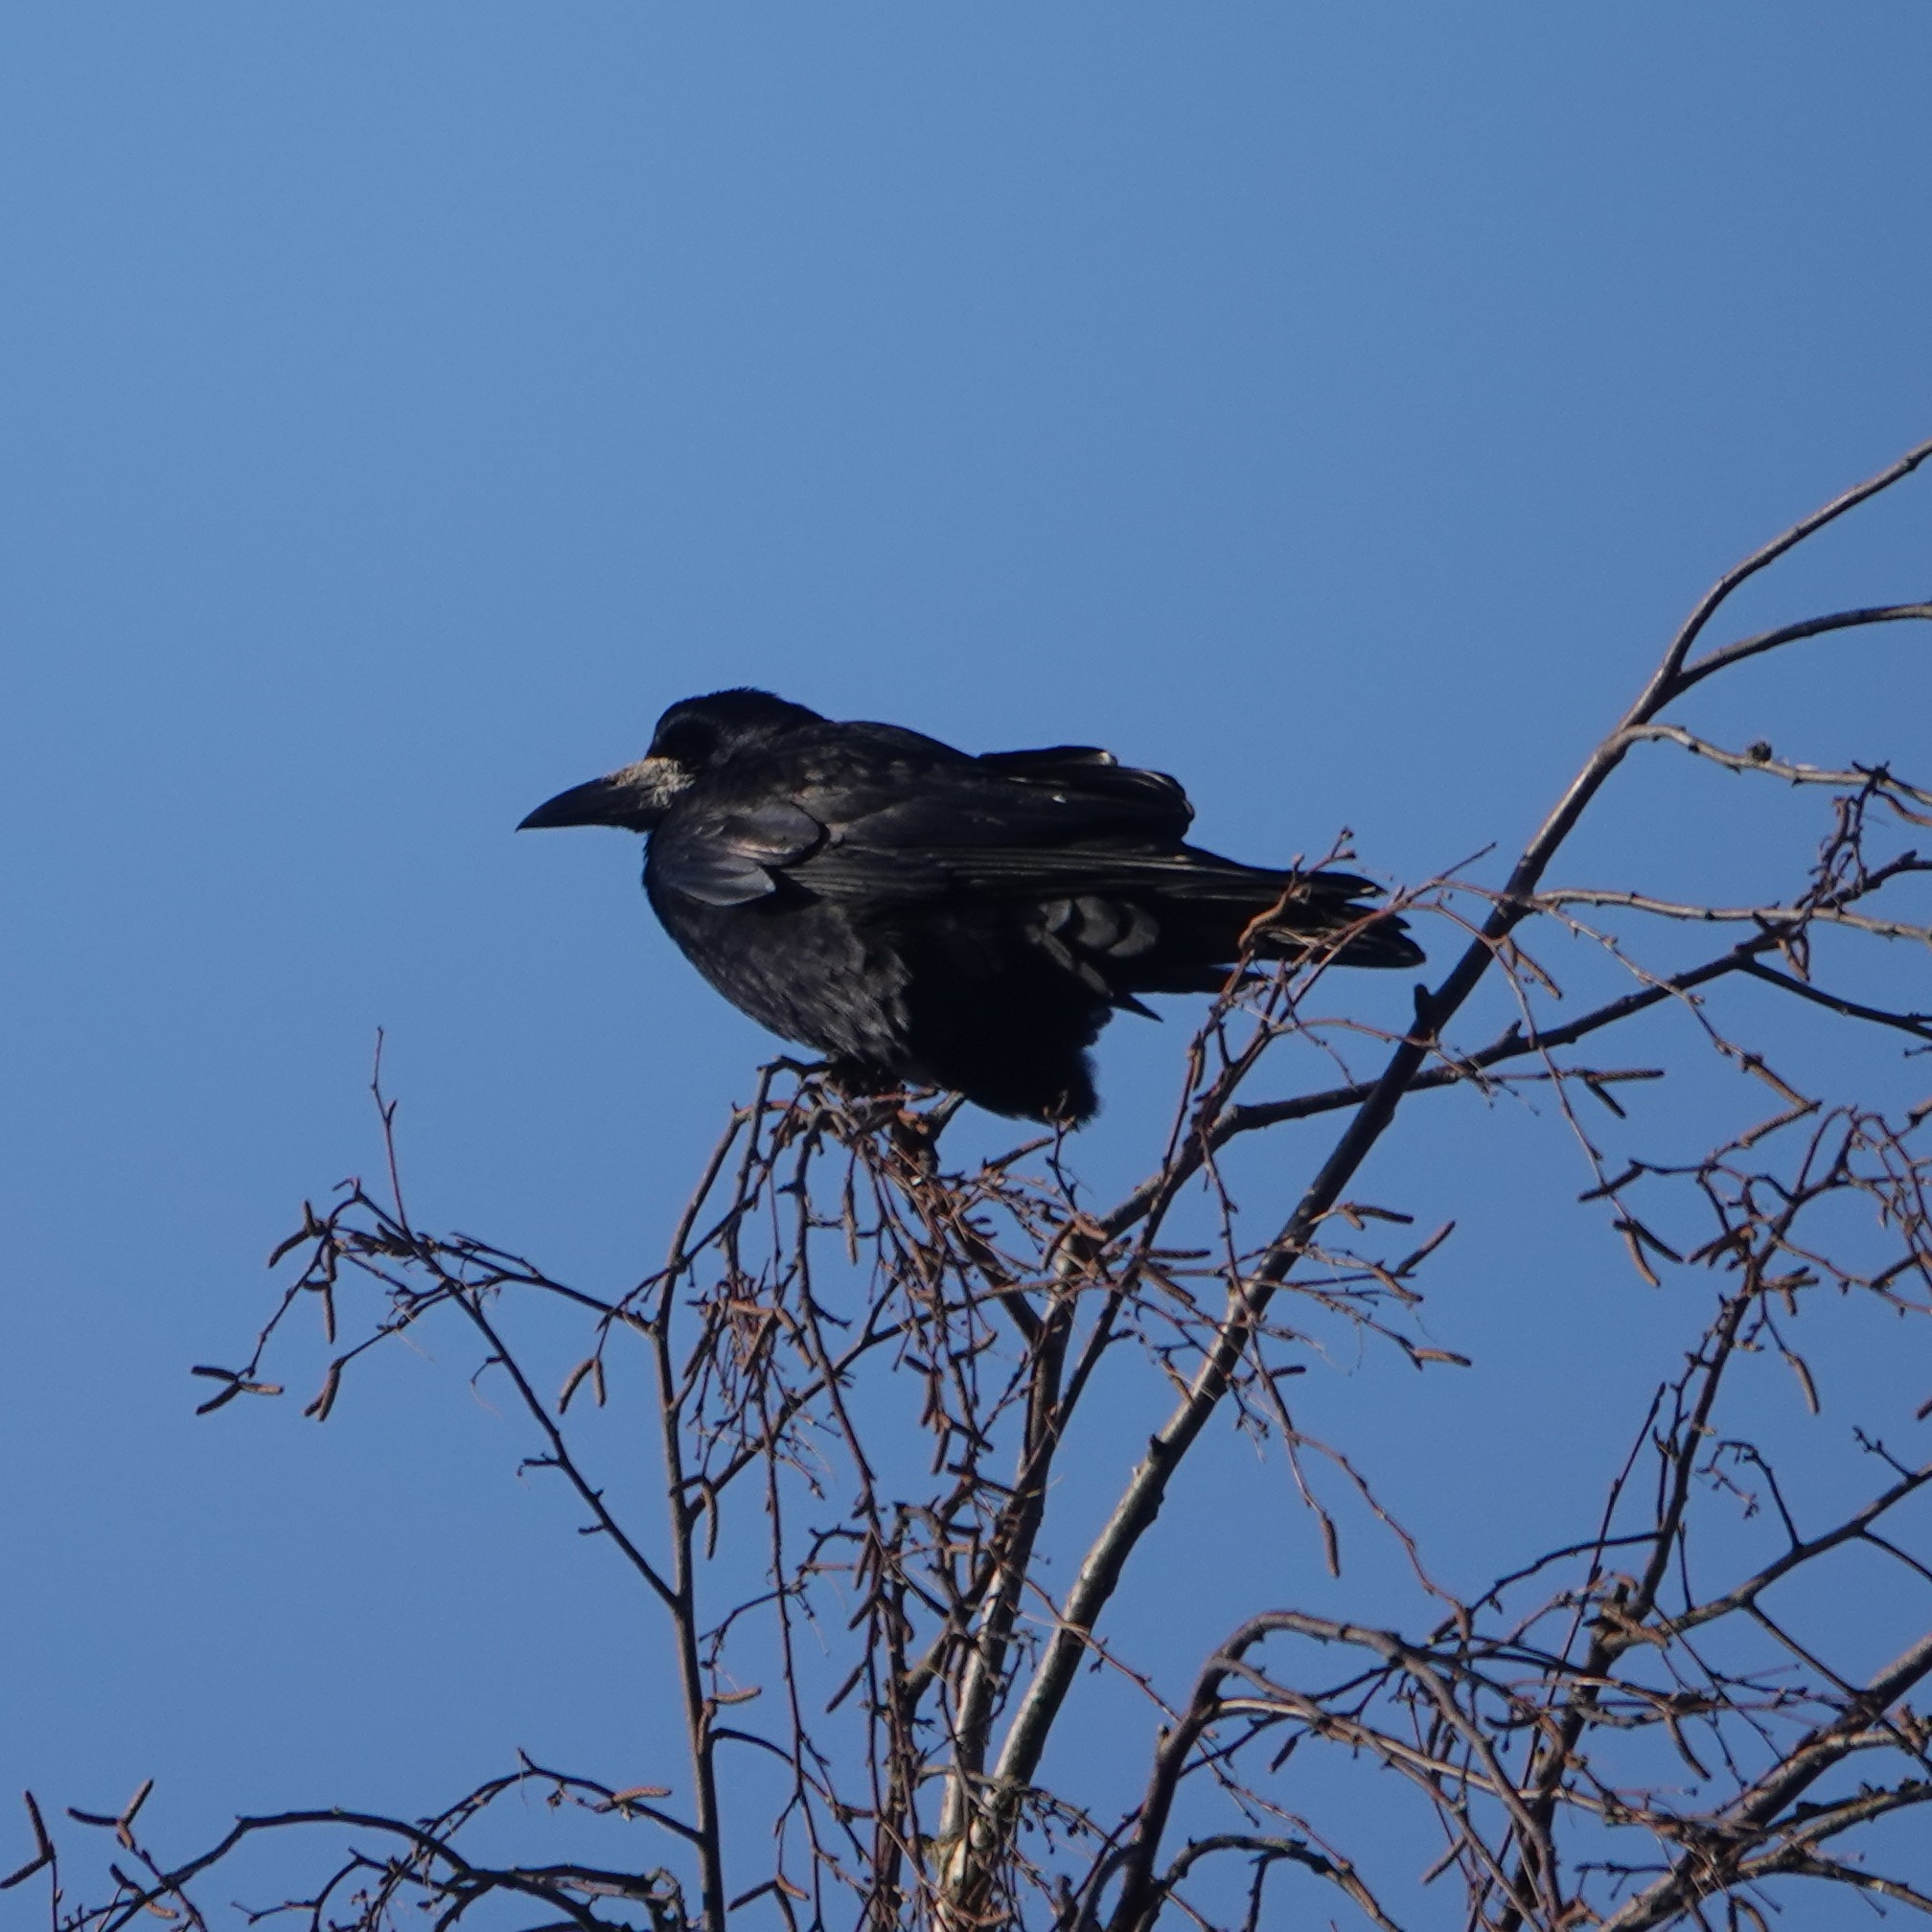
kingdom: Animalia
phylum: Chordata
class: Aves
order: Passeriformes
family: Corvidae
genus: Corvus
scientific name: Corvus frugilegus
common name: Rook
